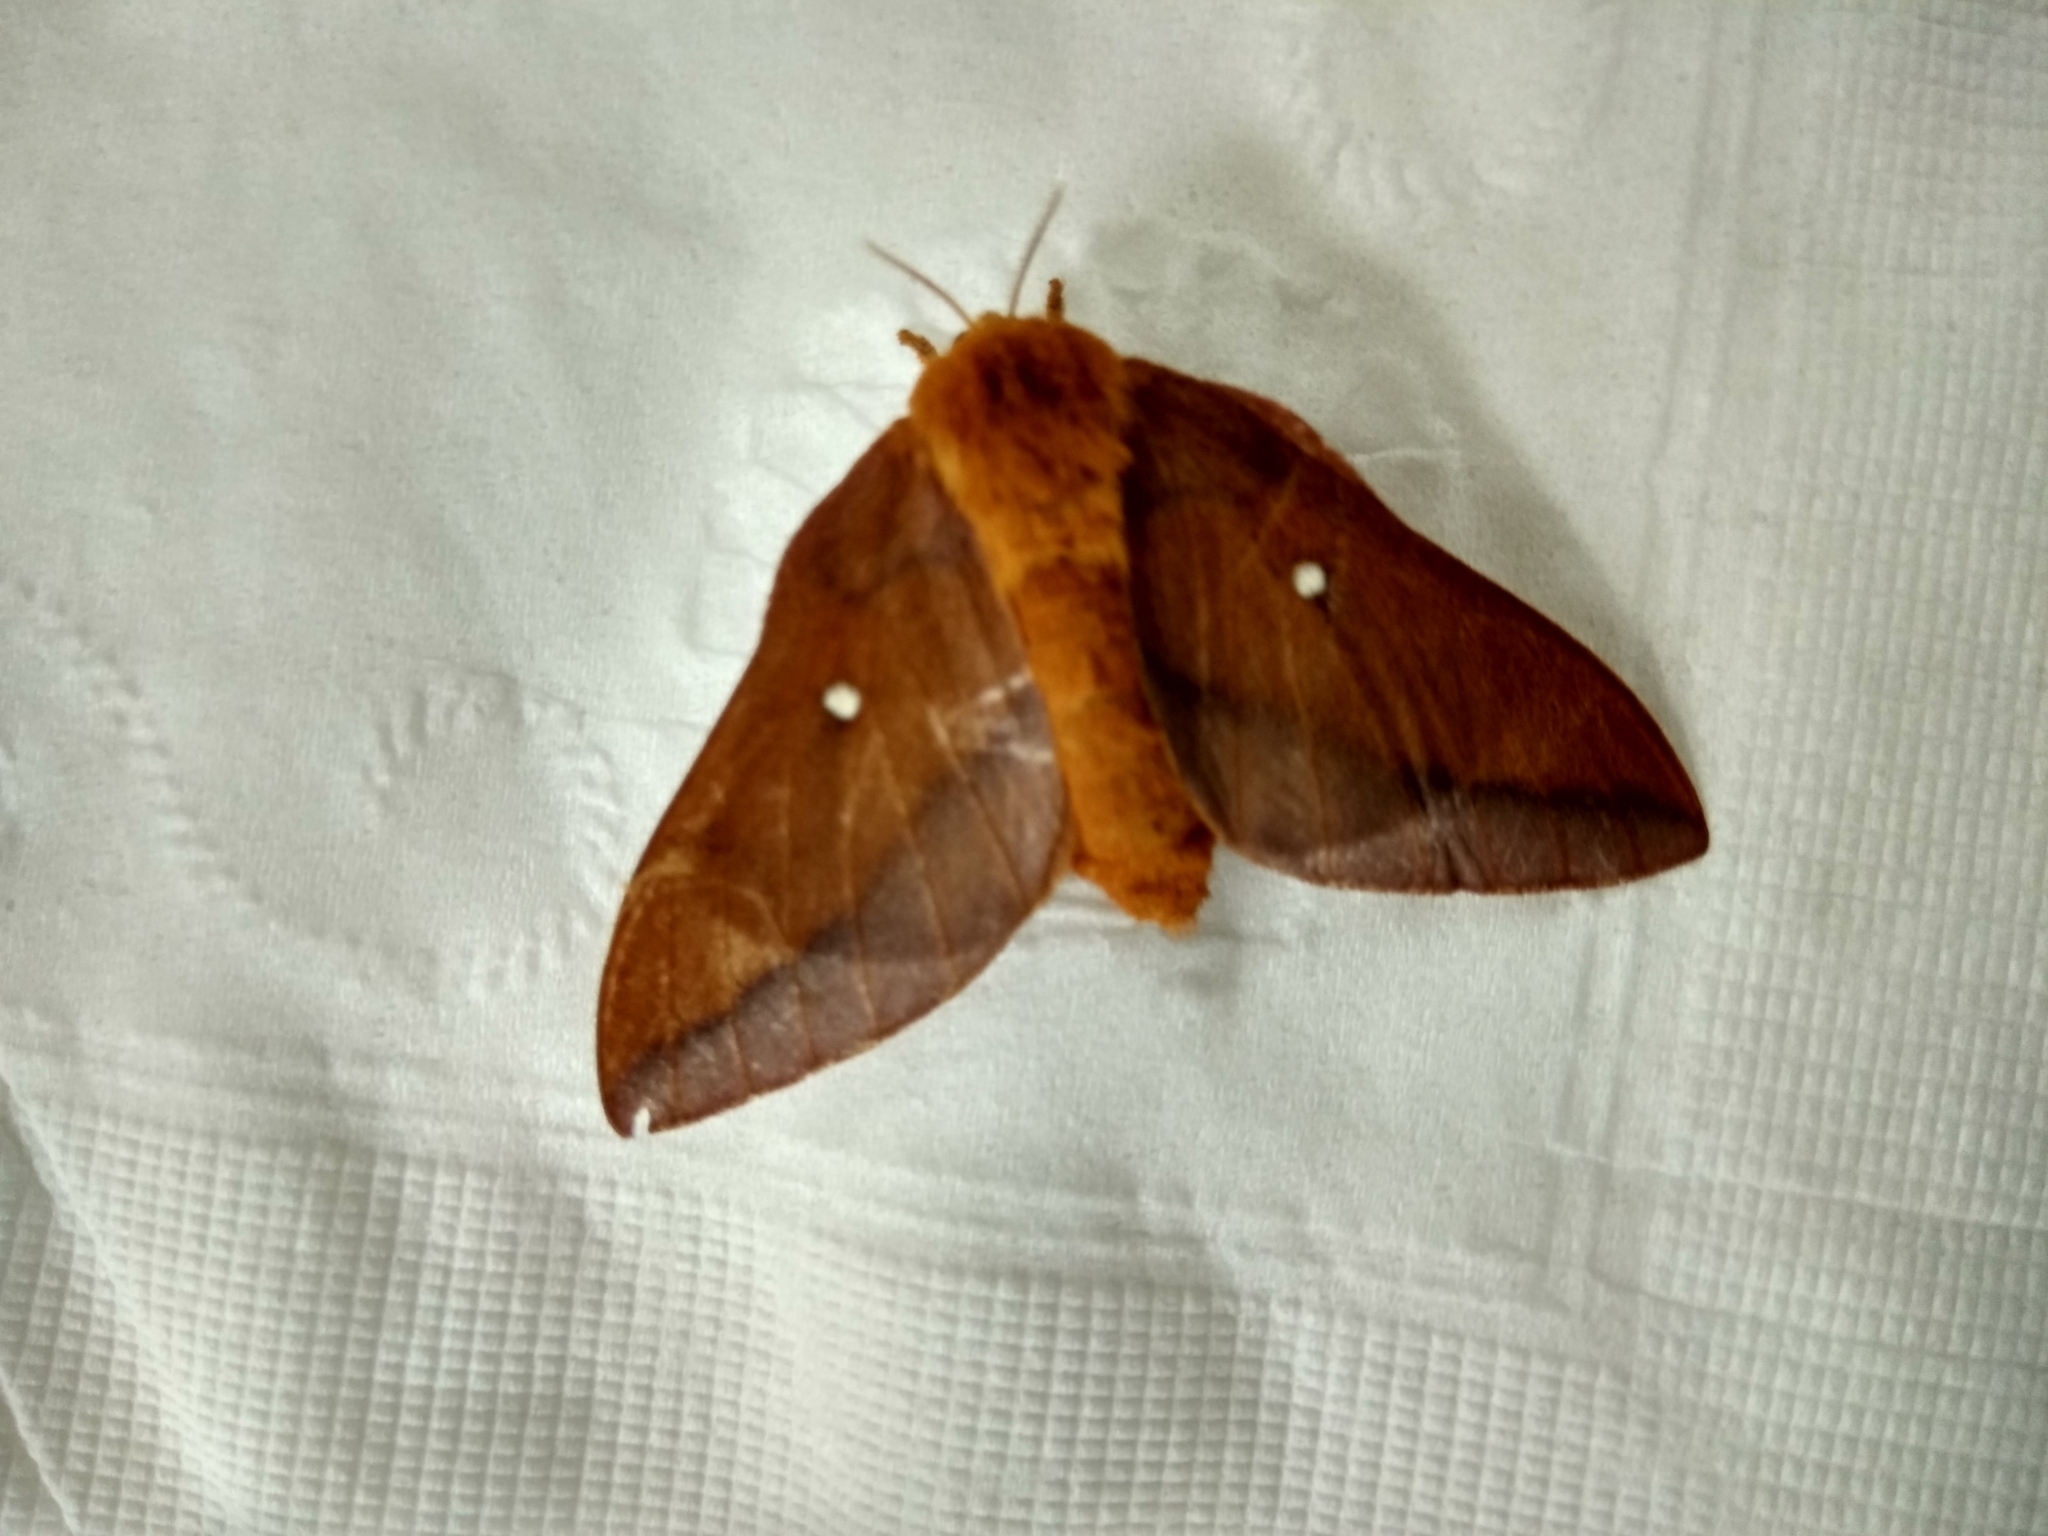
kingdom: Animalia
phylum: Arthropoda
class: Insecta
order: Lepidoptera
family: Saturniidae
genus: Anisota
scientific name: Anisota virginiensis
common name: Pink striped oakworm moth
